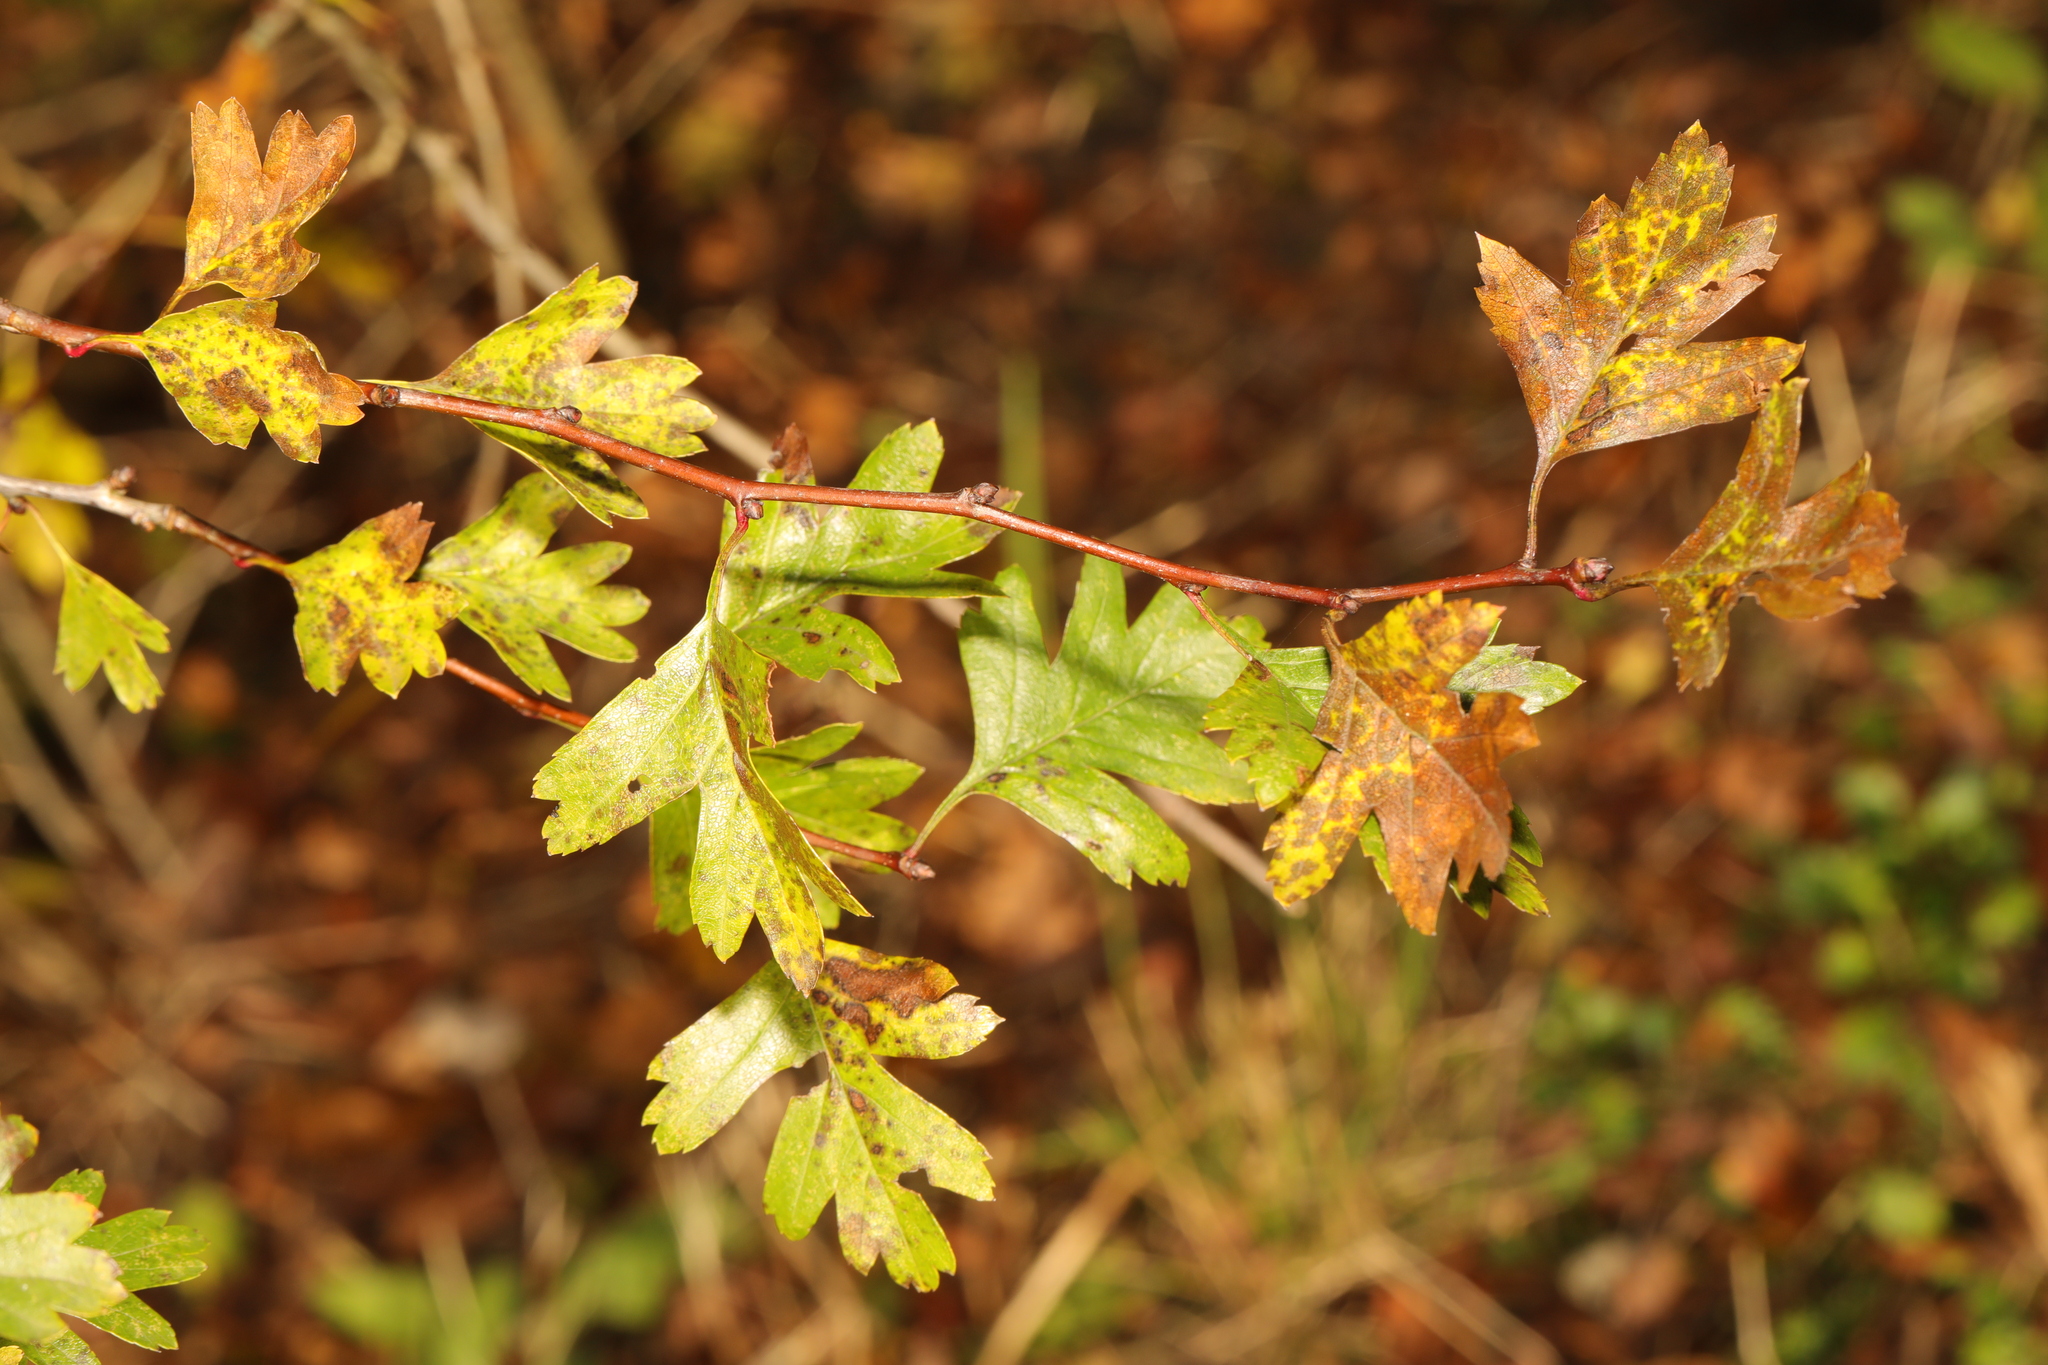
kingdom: Plantae
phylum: Tracheophyta
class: Magnoliopsida
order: Rosales
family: Rosaceae
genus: Crataegus
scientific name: Crataegus monogyna
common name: Hawthorn
